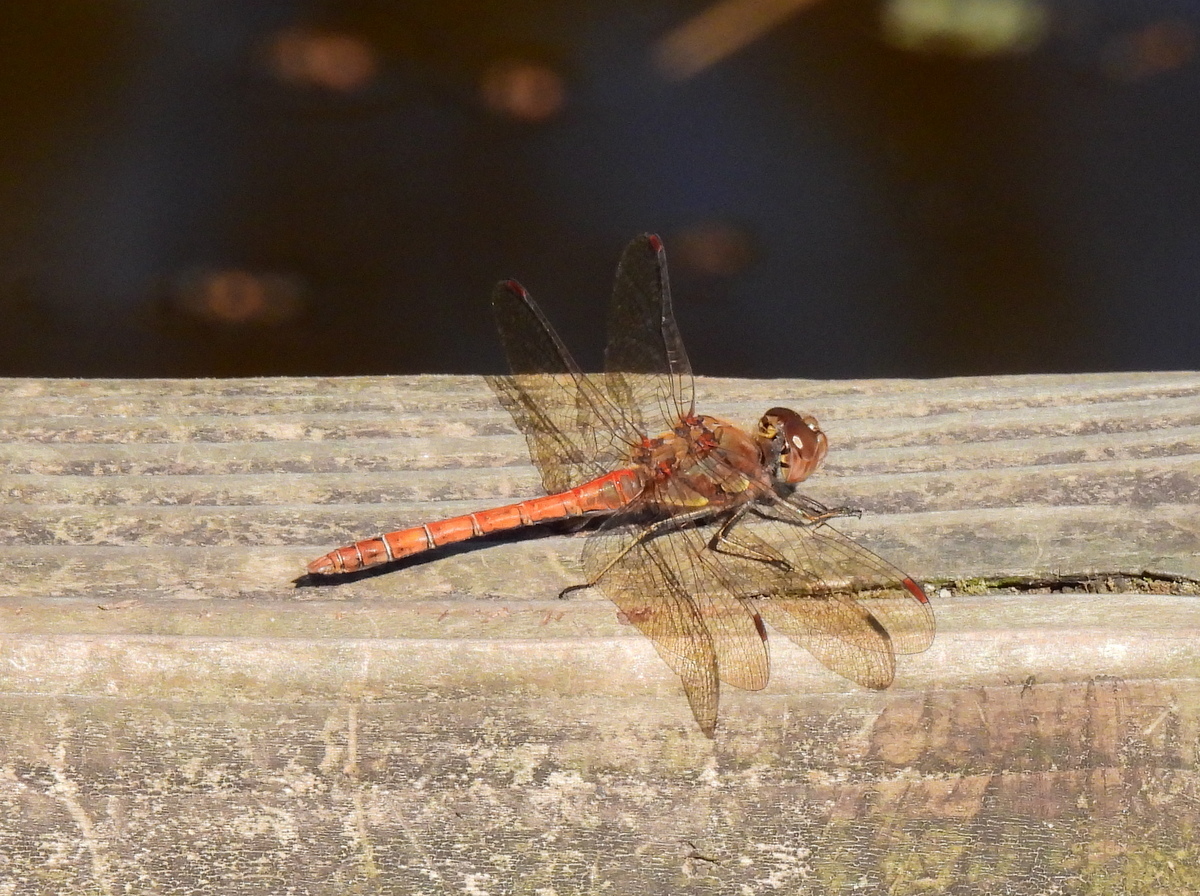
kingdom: Animalia
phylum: Arthropoda
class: Insecta
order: Odonata
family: Libellulidae
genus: Sympetrum
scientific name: Sympetrum striolatum
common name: Common darter
